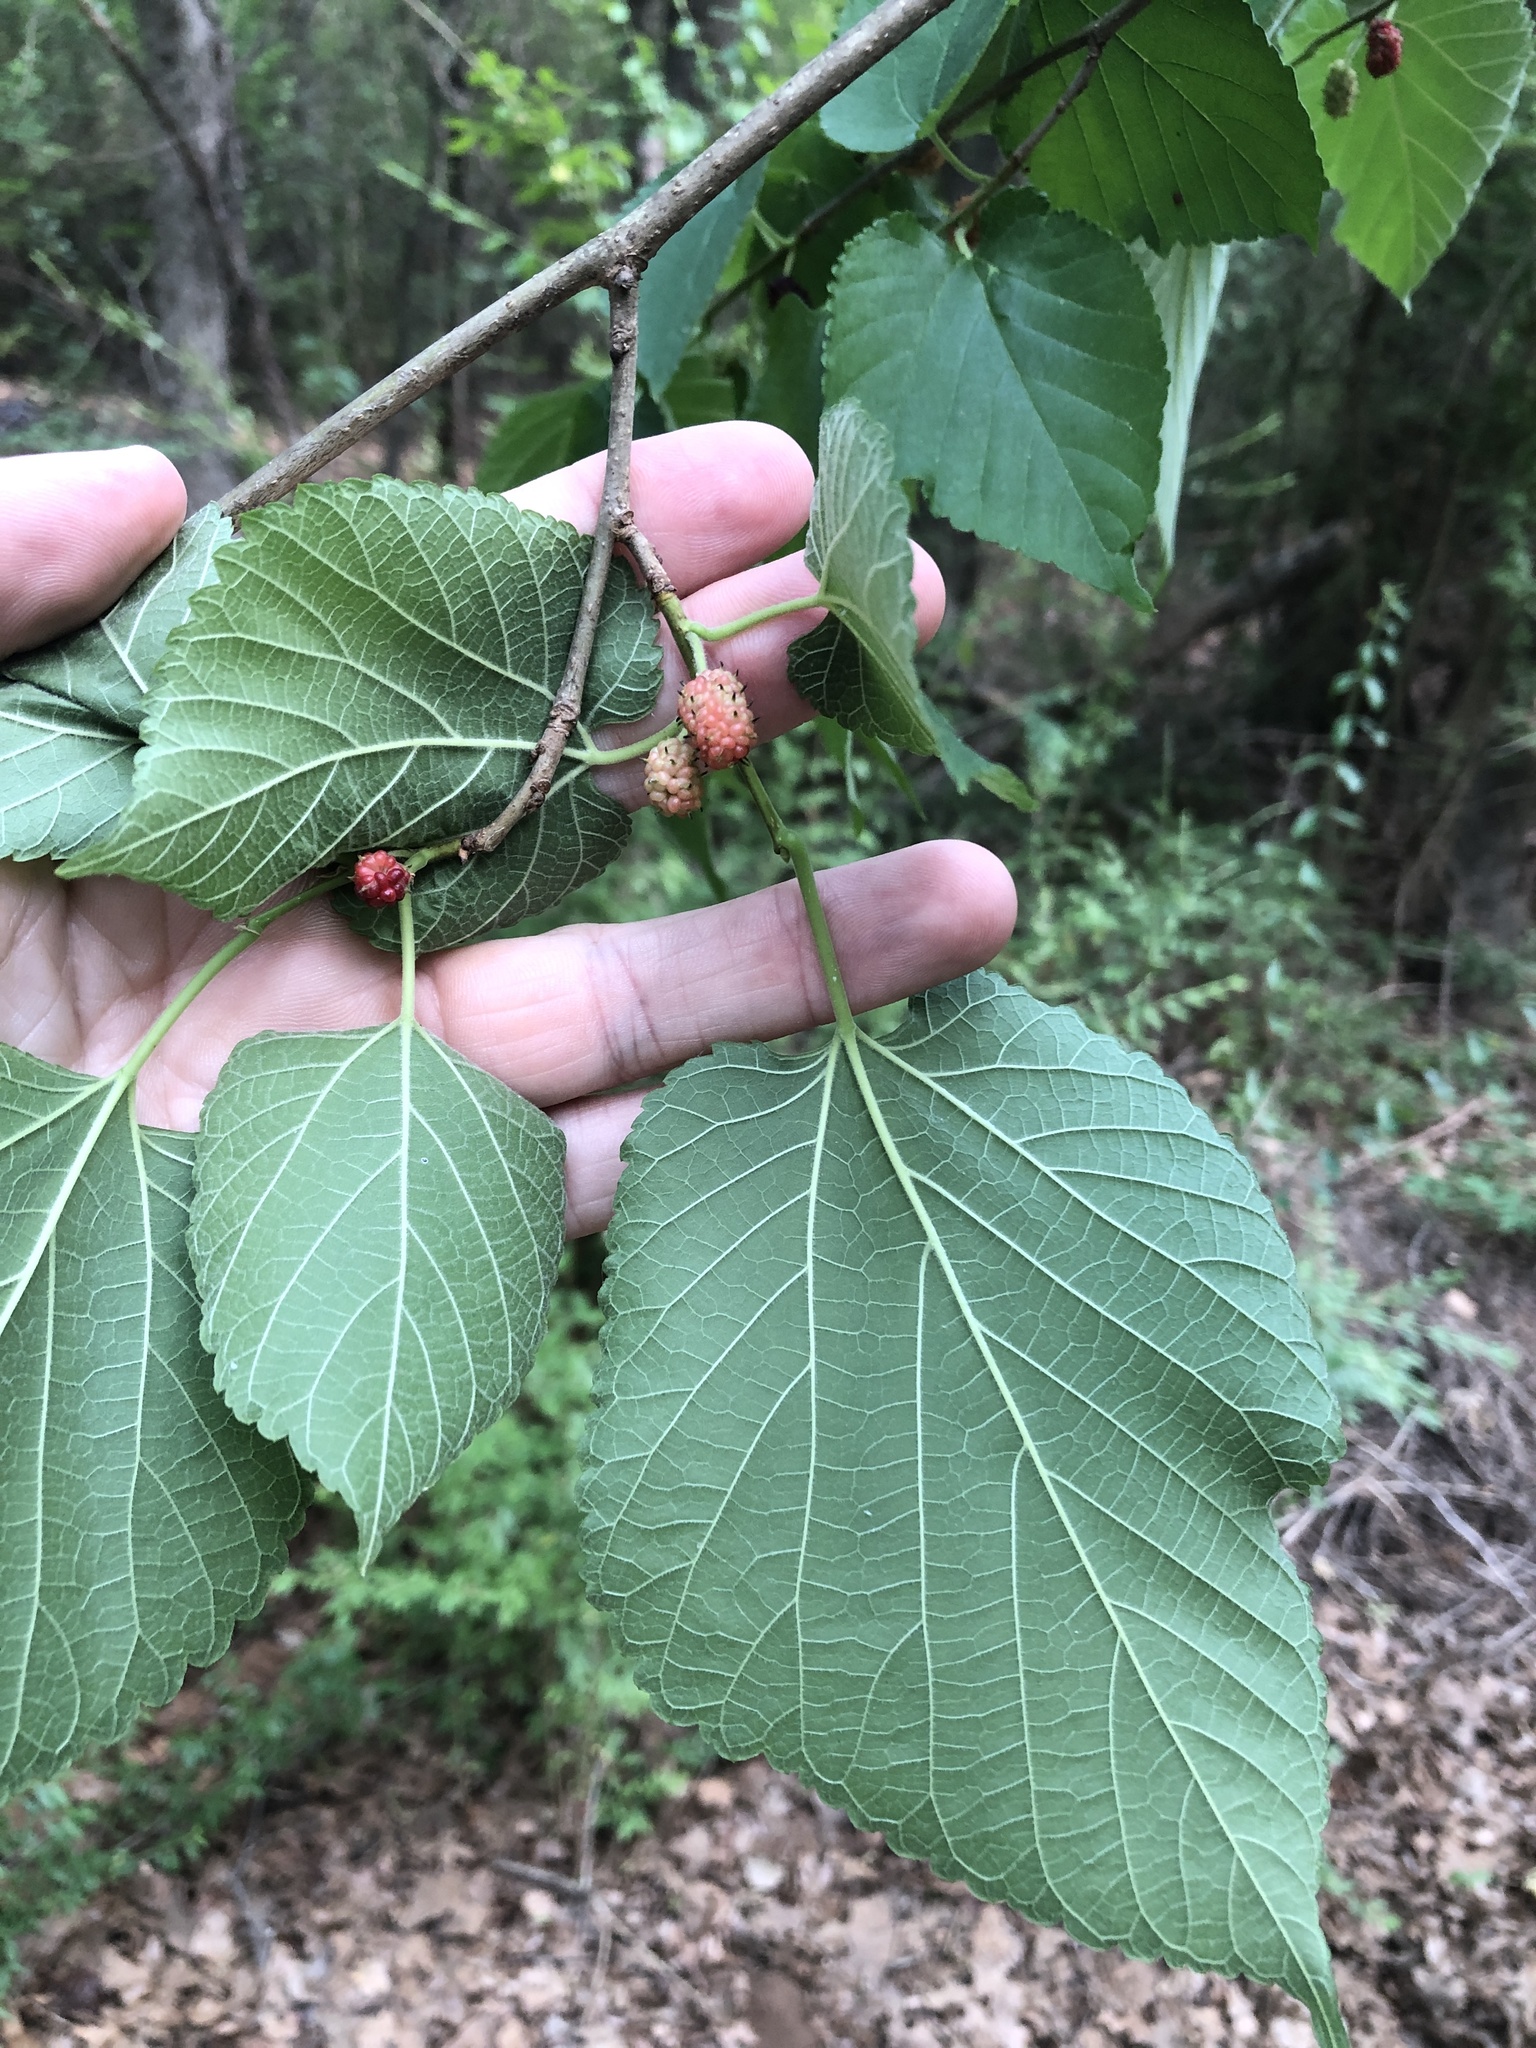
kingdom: Plantae
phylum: Tracheophyta
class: Magnoliopsida
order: Rosales
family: Moraceae
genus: Morus
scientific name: Morus rubra
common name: Red mulberry
